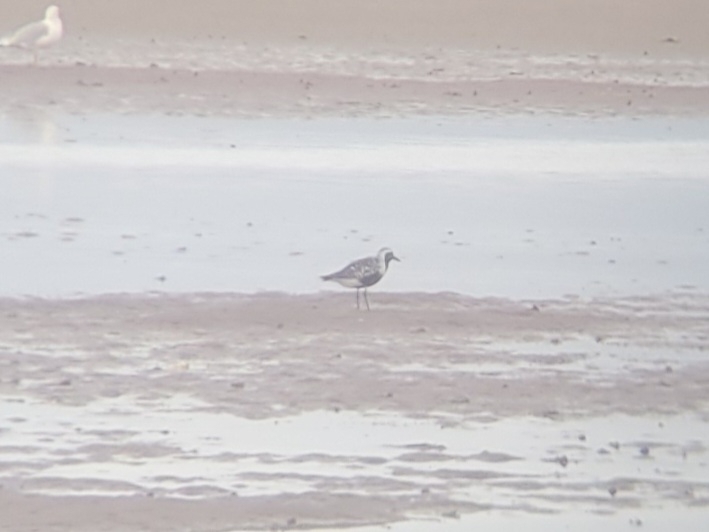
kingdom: Animalia
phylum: Chordata
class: Aves
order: Charadriiformes
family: Charadriidae
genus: Pluvialis
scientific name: Pluvialis squatarola
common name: Grey plover
